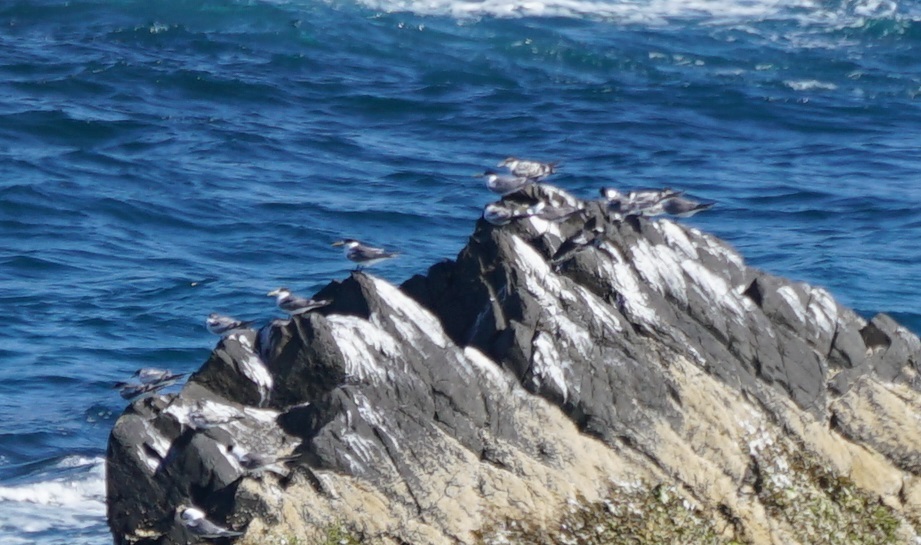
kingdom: Animalia
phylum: Chordata
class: Aves
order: Charadriiformes
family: Laridae
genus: Thalasseus
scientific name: Thalasseus bergii
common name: Greater crested tern
